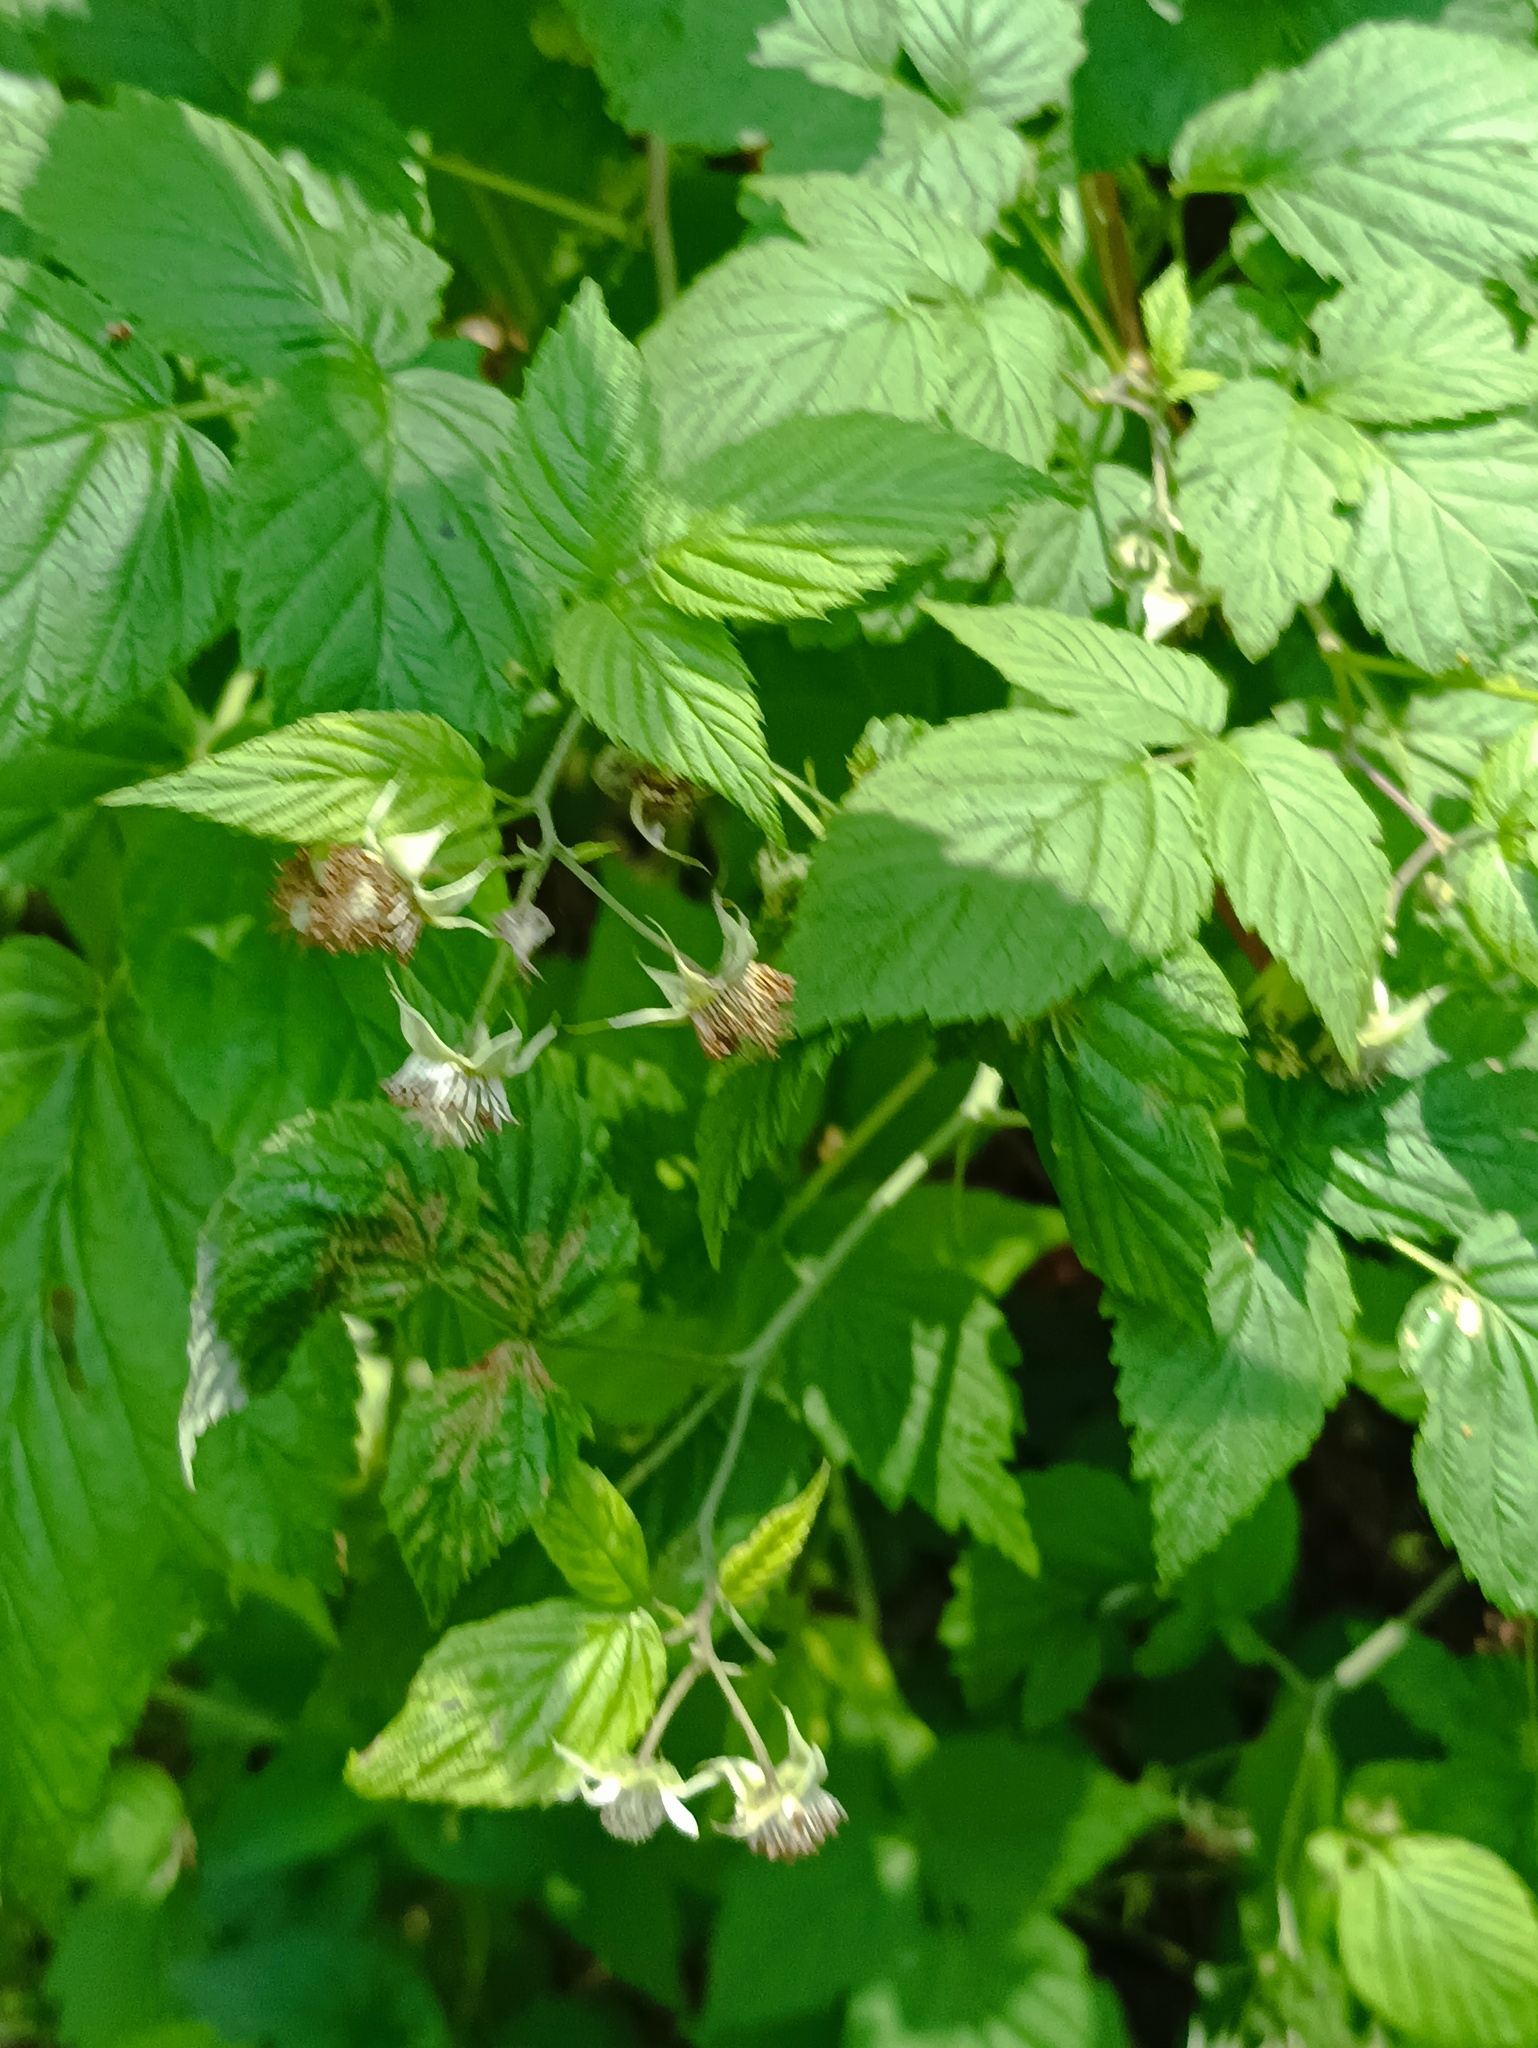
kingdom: Plantae
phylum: Tracheophyta
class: Magnoliopsida
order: Rosales
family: Rosaceae
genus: Rubus
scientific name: Rubus idaeus
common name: Raspberry
